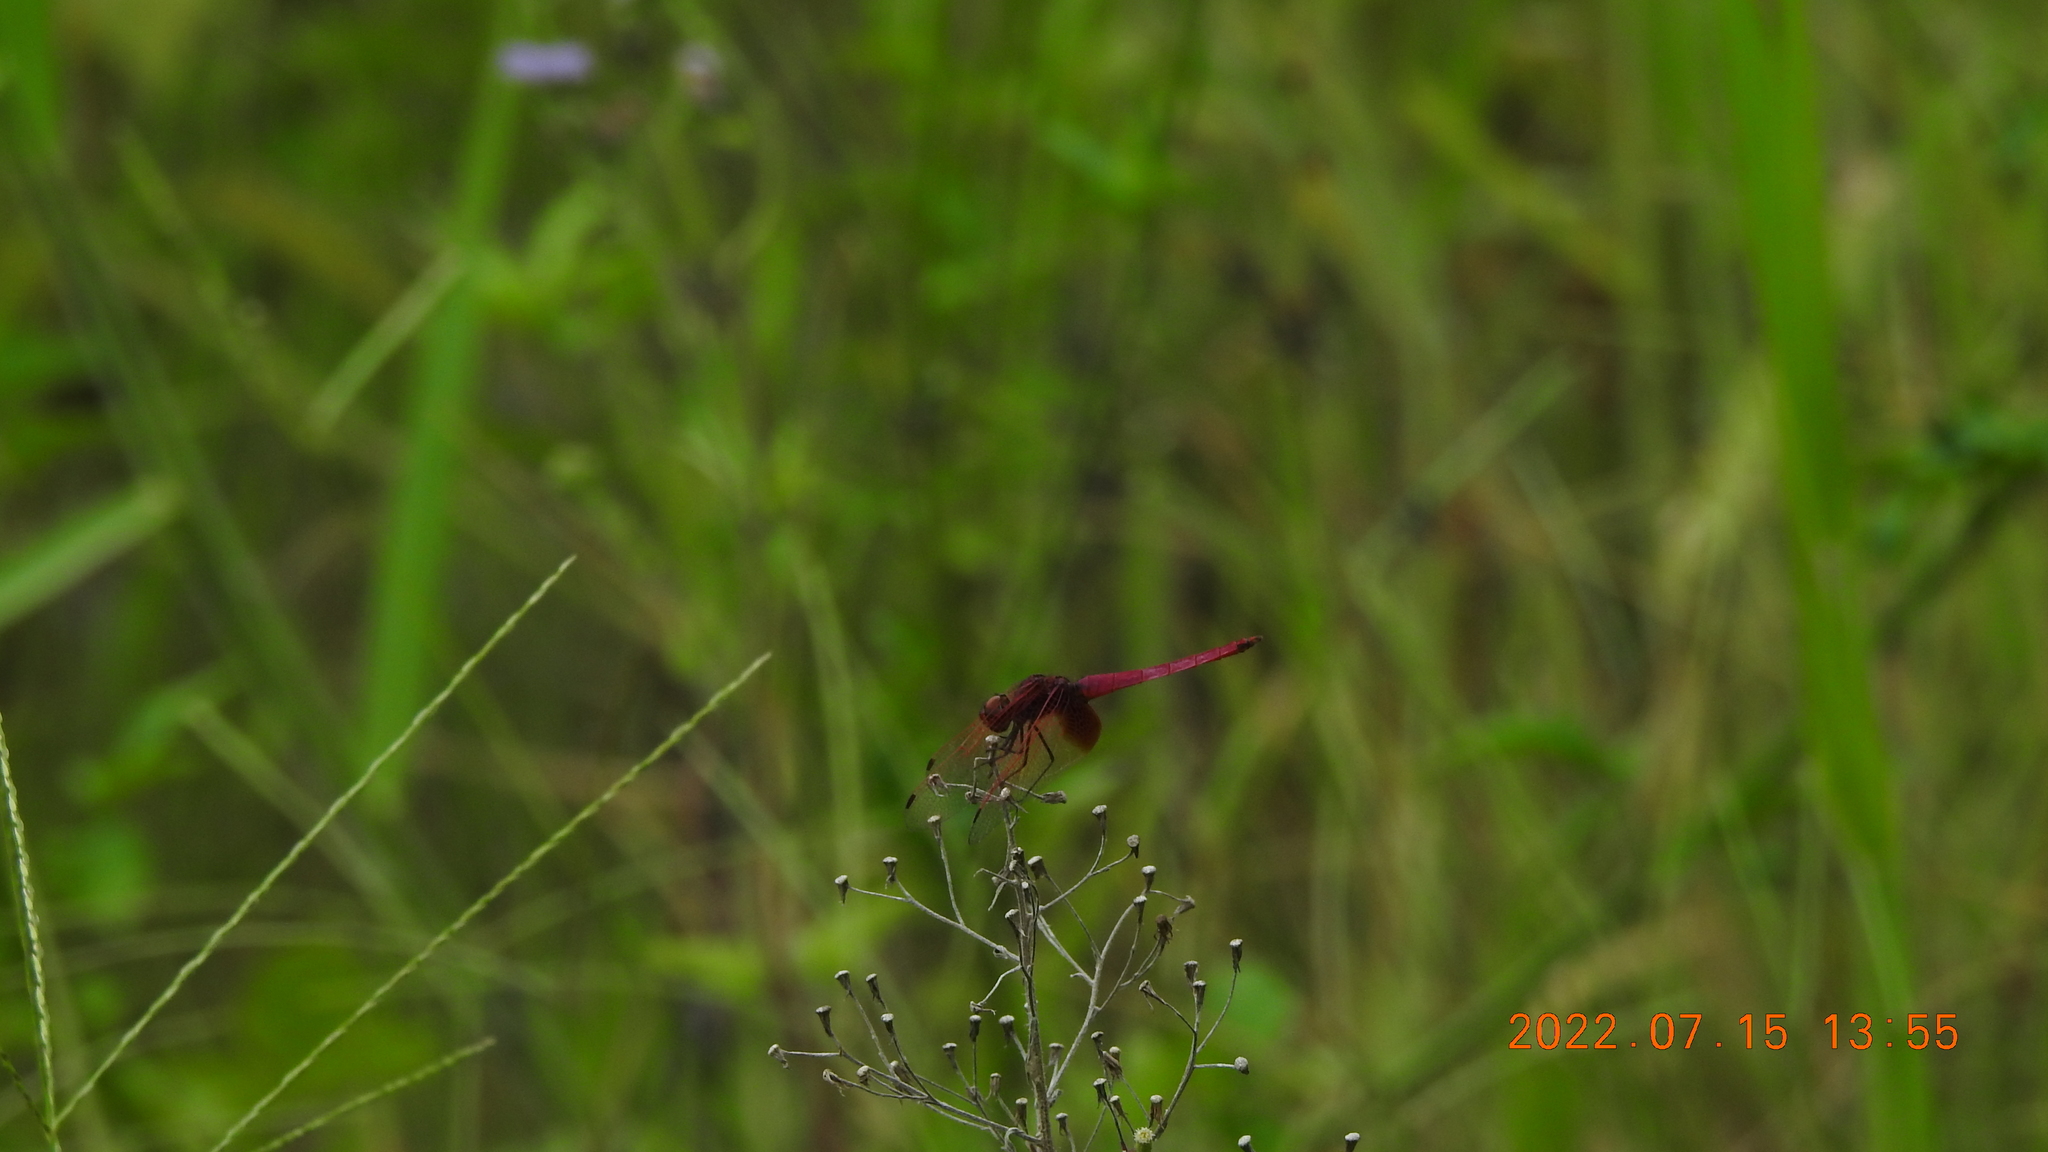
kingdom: Animalia
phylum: Arthropoda
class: Insecta
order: Odonata
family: Libellulidae
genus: Trithemis
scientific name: Trithemis aurora
